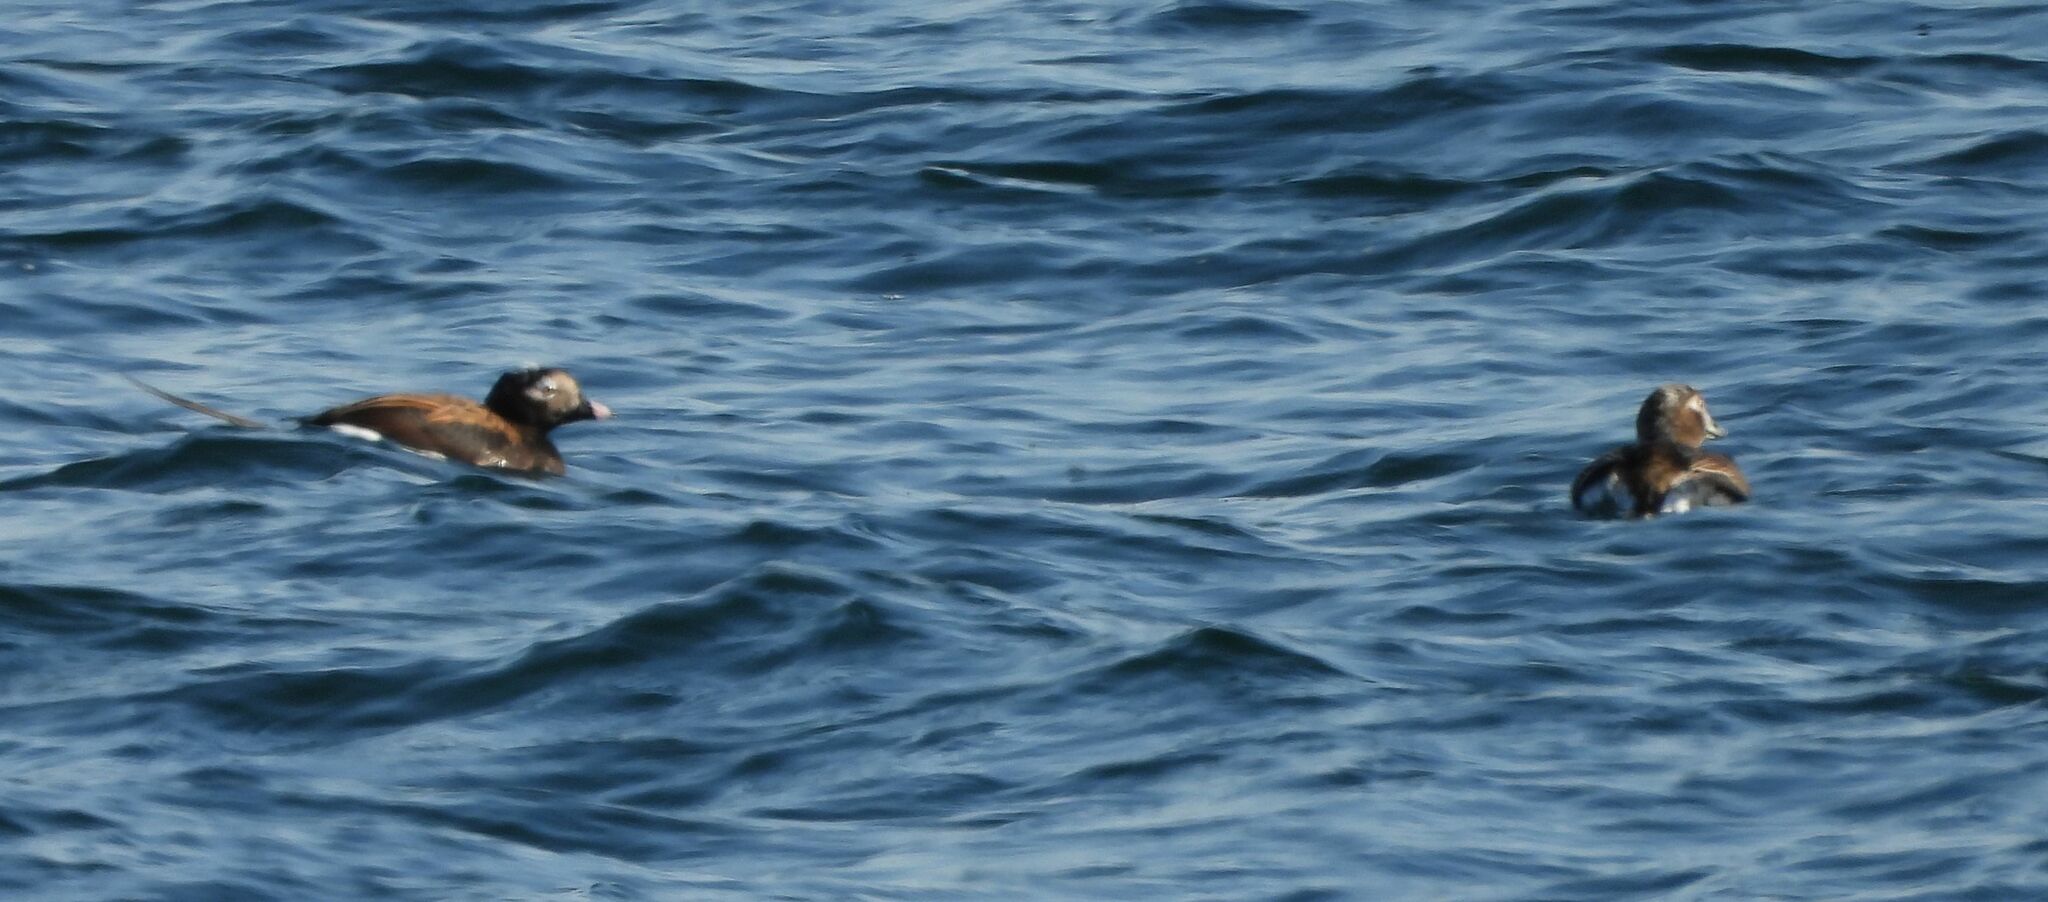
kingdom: Animalia
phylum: Chordata
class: Aves
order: Anseriformes
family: Anatidae
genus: Clangula
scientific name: Clangula hyemalis
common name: Long-tailed duck
